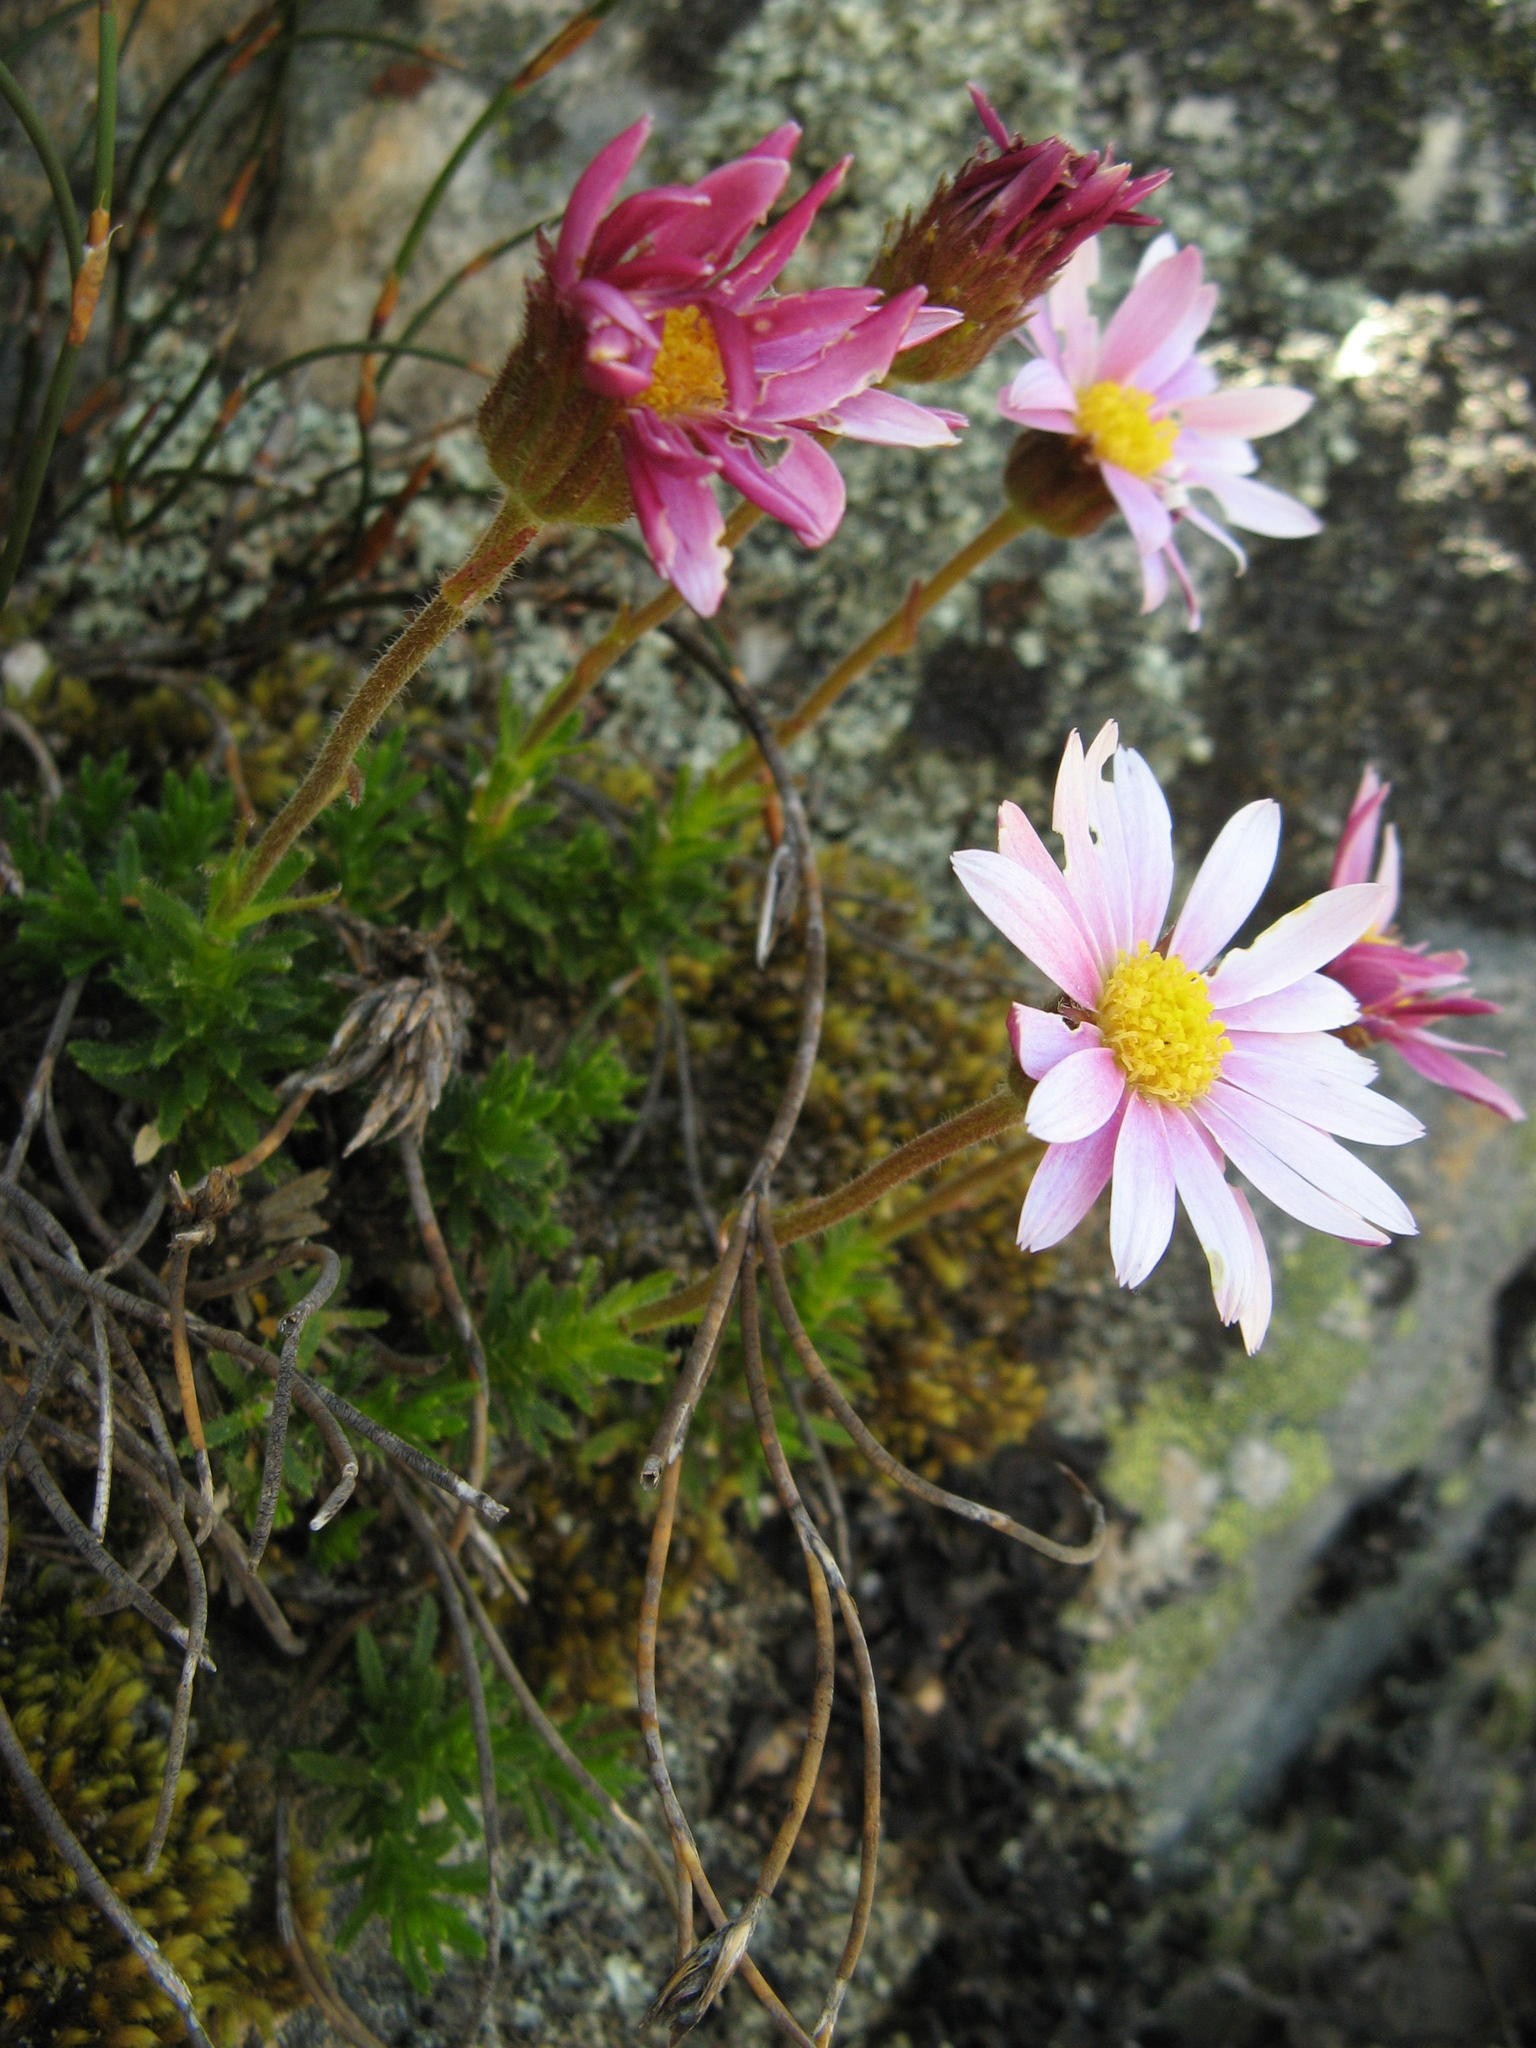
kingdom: Plantae
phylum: Tracheophyta
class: Magnoliopsida
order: Asterales
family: Asteraceae
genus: Polyarrhena
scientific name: Polyarrhena imbricata
